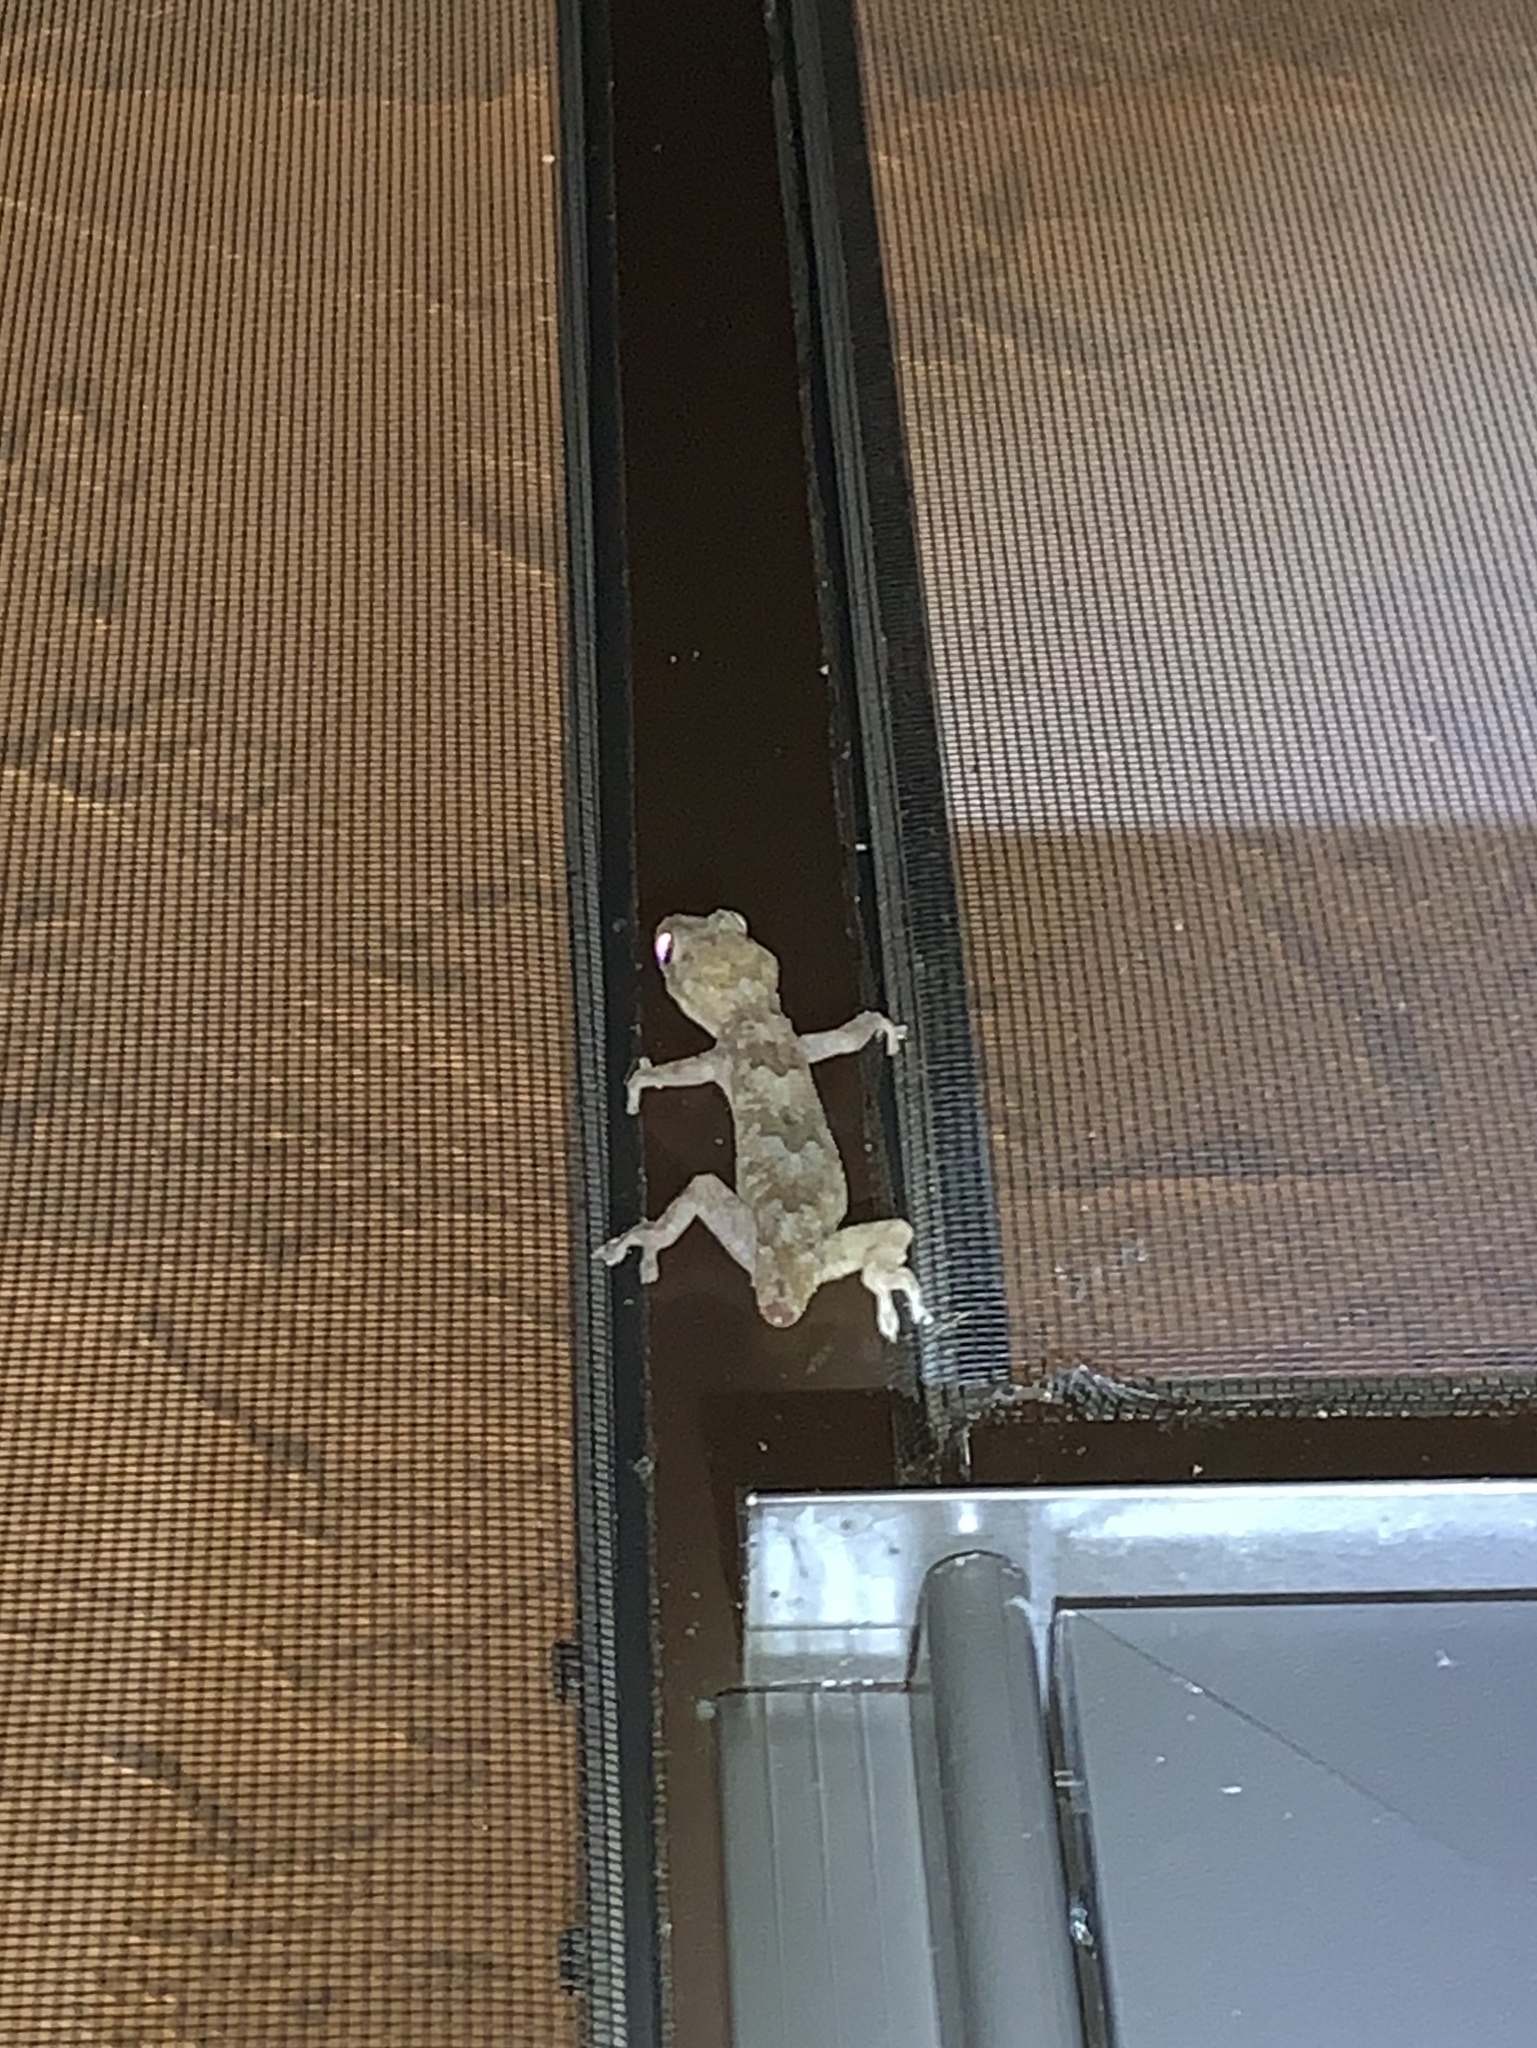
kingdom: Animalia
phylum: Chordata
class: Squamata
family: Gekkonidae
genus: Hemidactylus
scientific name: Hemidactylus mabouia
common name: House gecko
